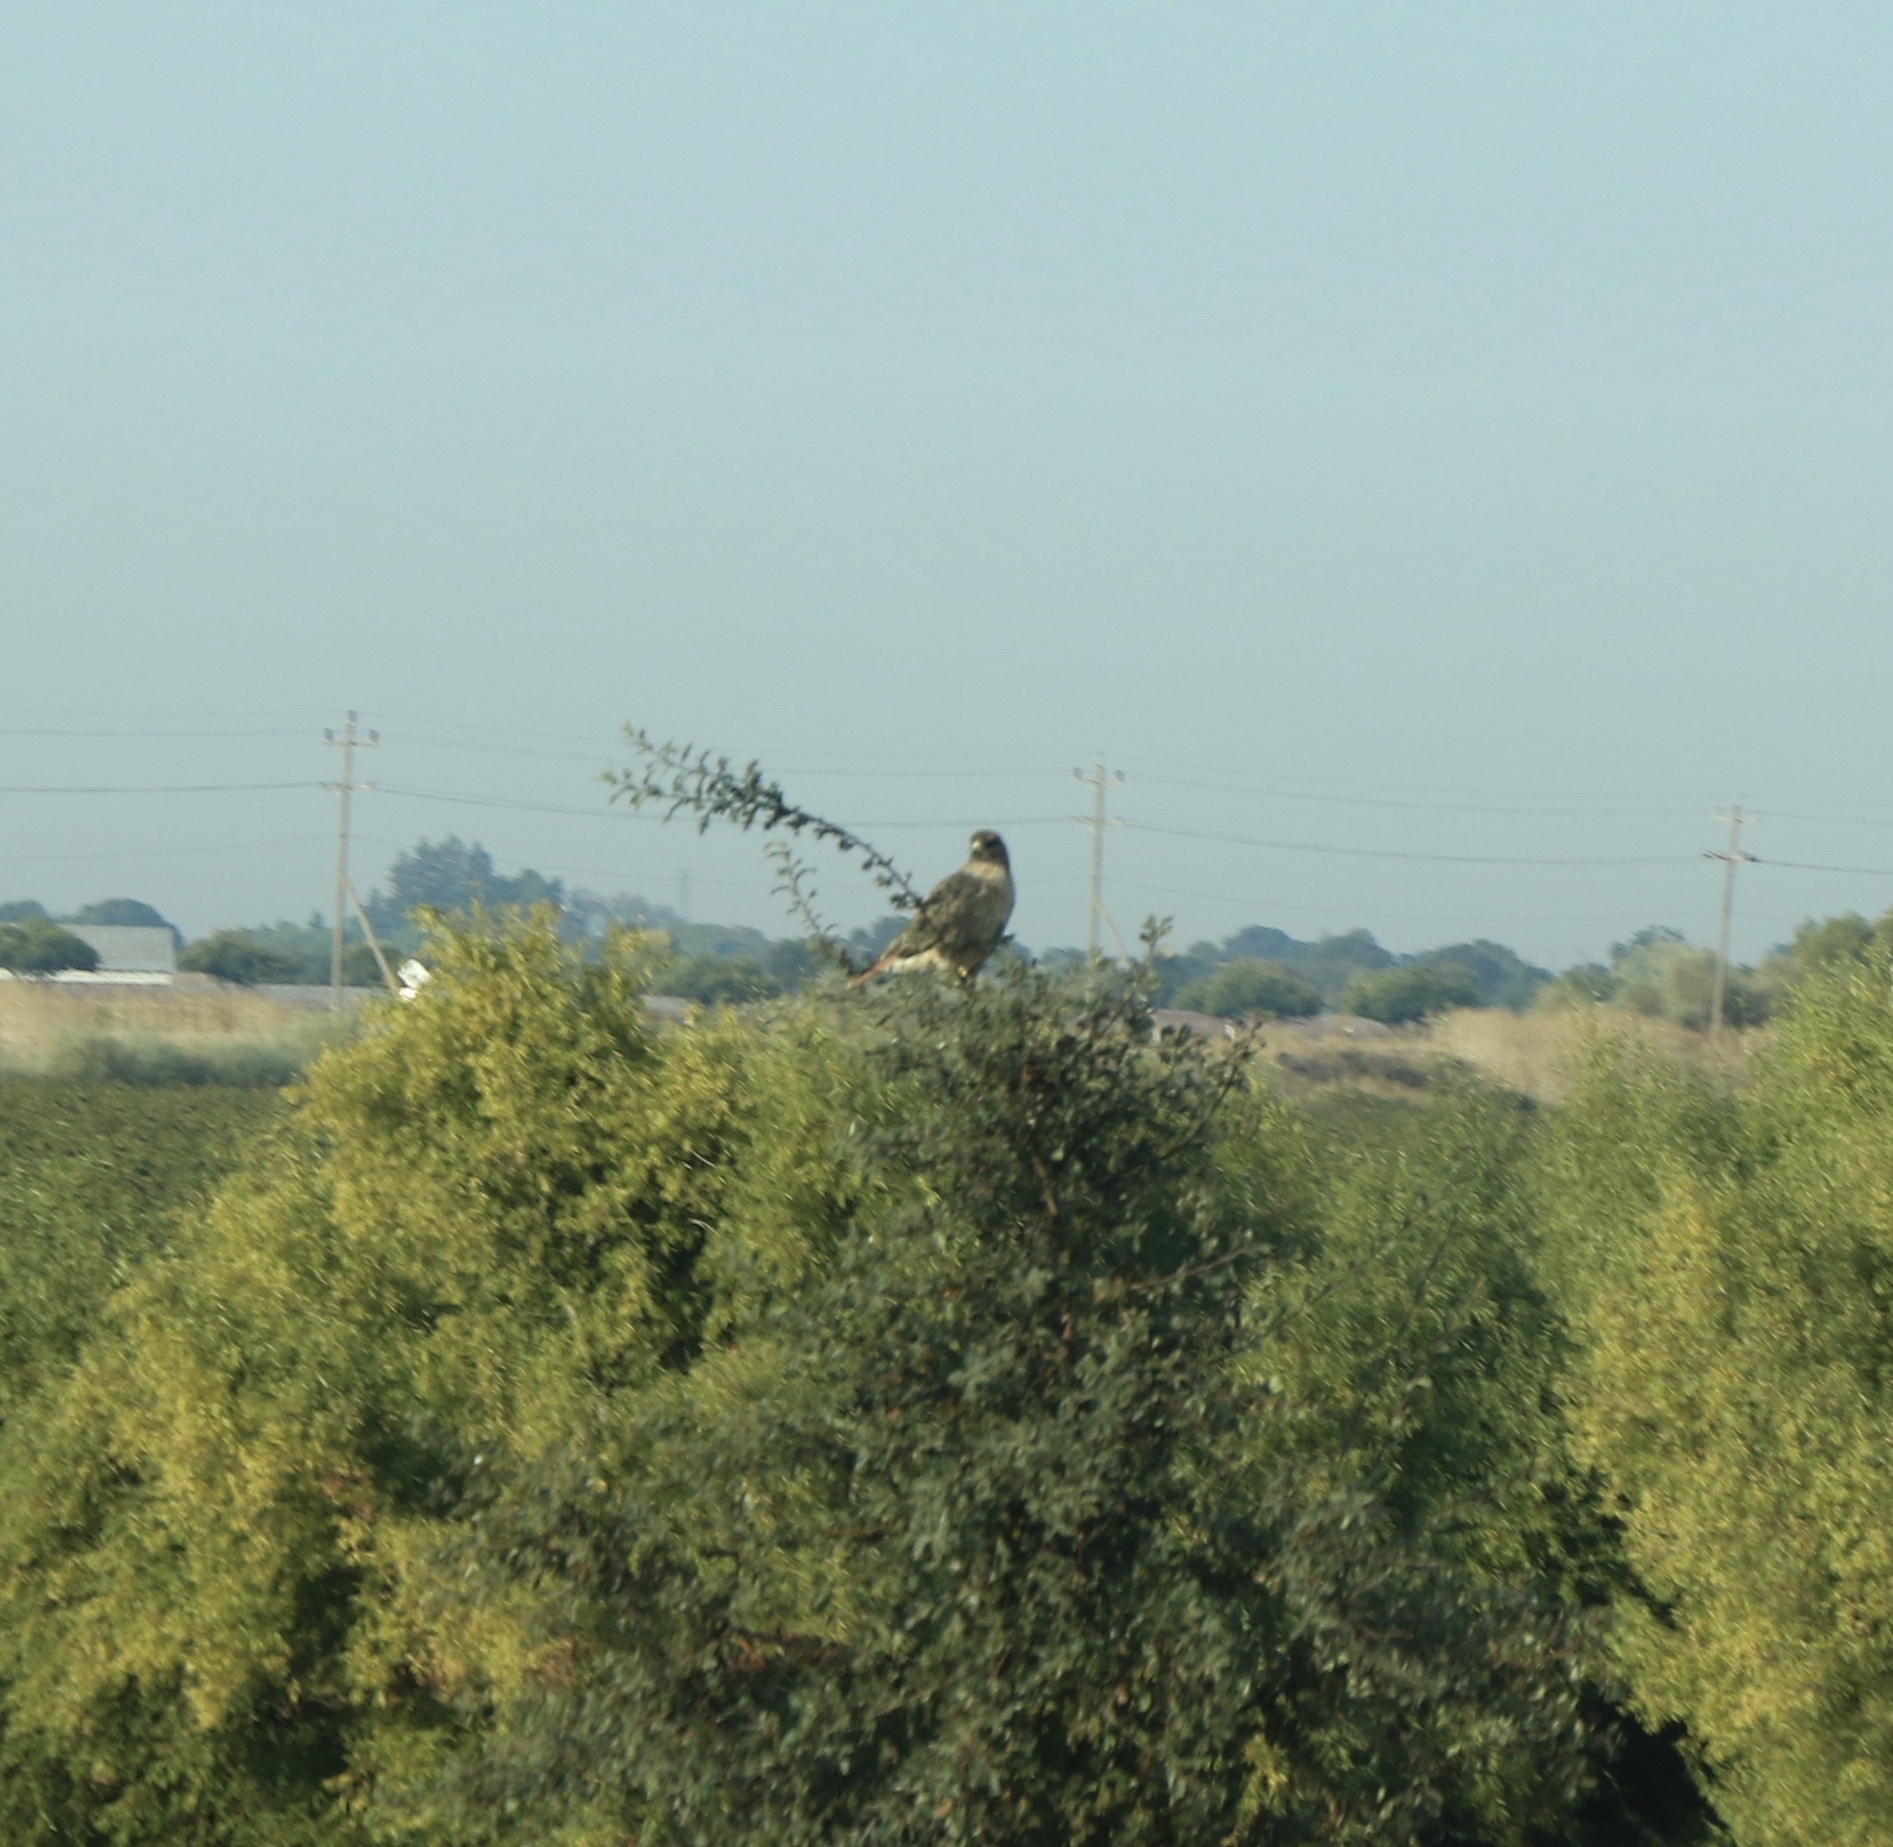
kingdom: Animalia
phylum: Chordata
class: Aves
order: Accipitriformes
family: Accipitridae
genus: Buteo
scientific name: Buteo jamaicensis
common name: Red-tailed hawk
